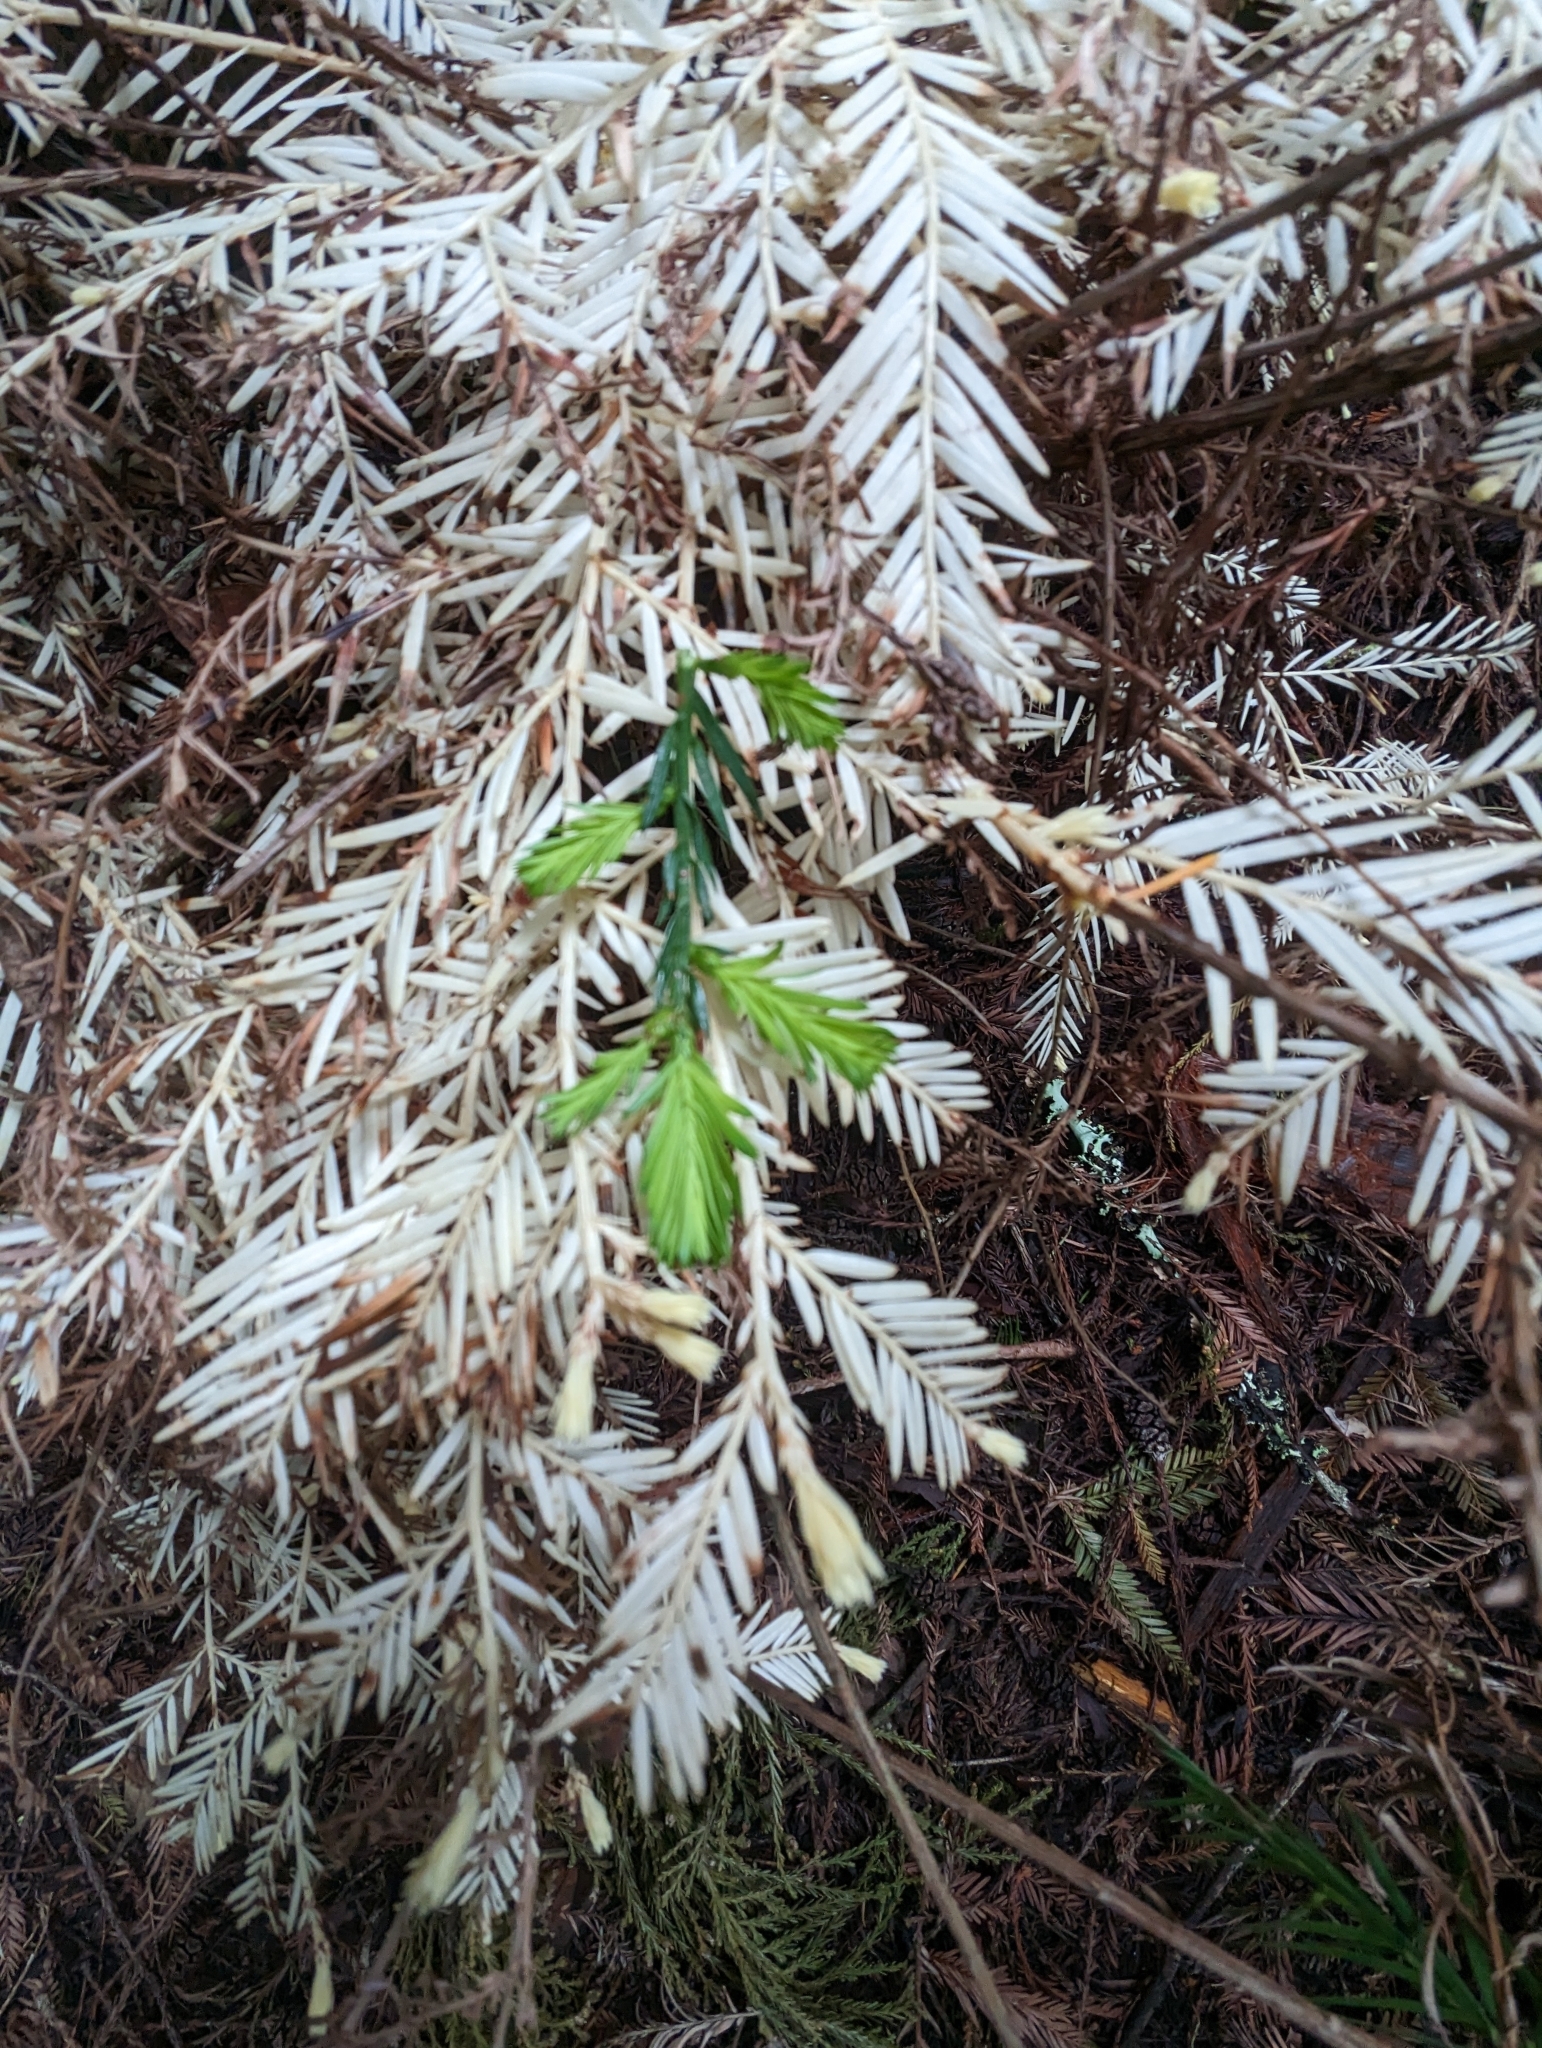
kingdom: Plantae
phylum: Tracheophyta
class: Pinopsida
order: Pinales
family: Cupressaceae
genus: Sequoia
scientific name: Sequoia sempervirens
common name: Coast redwood
